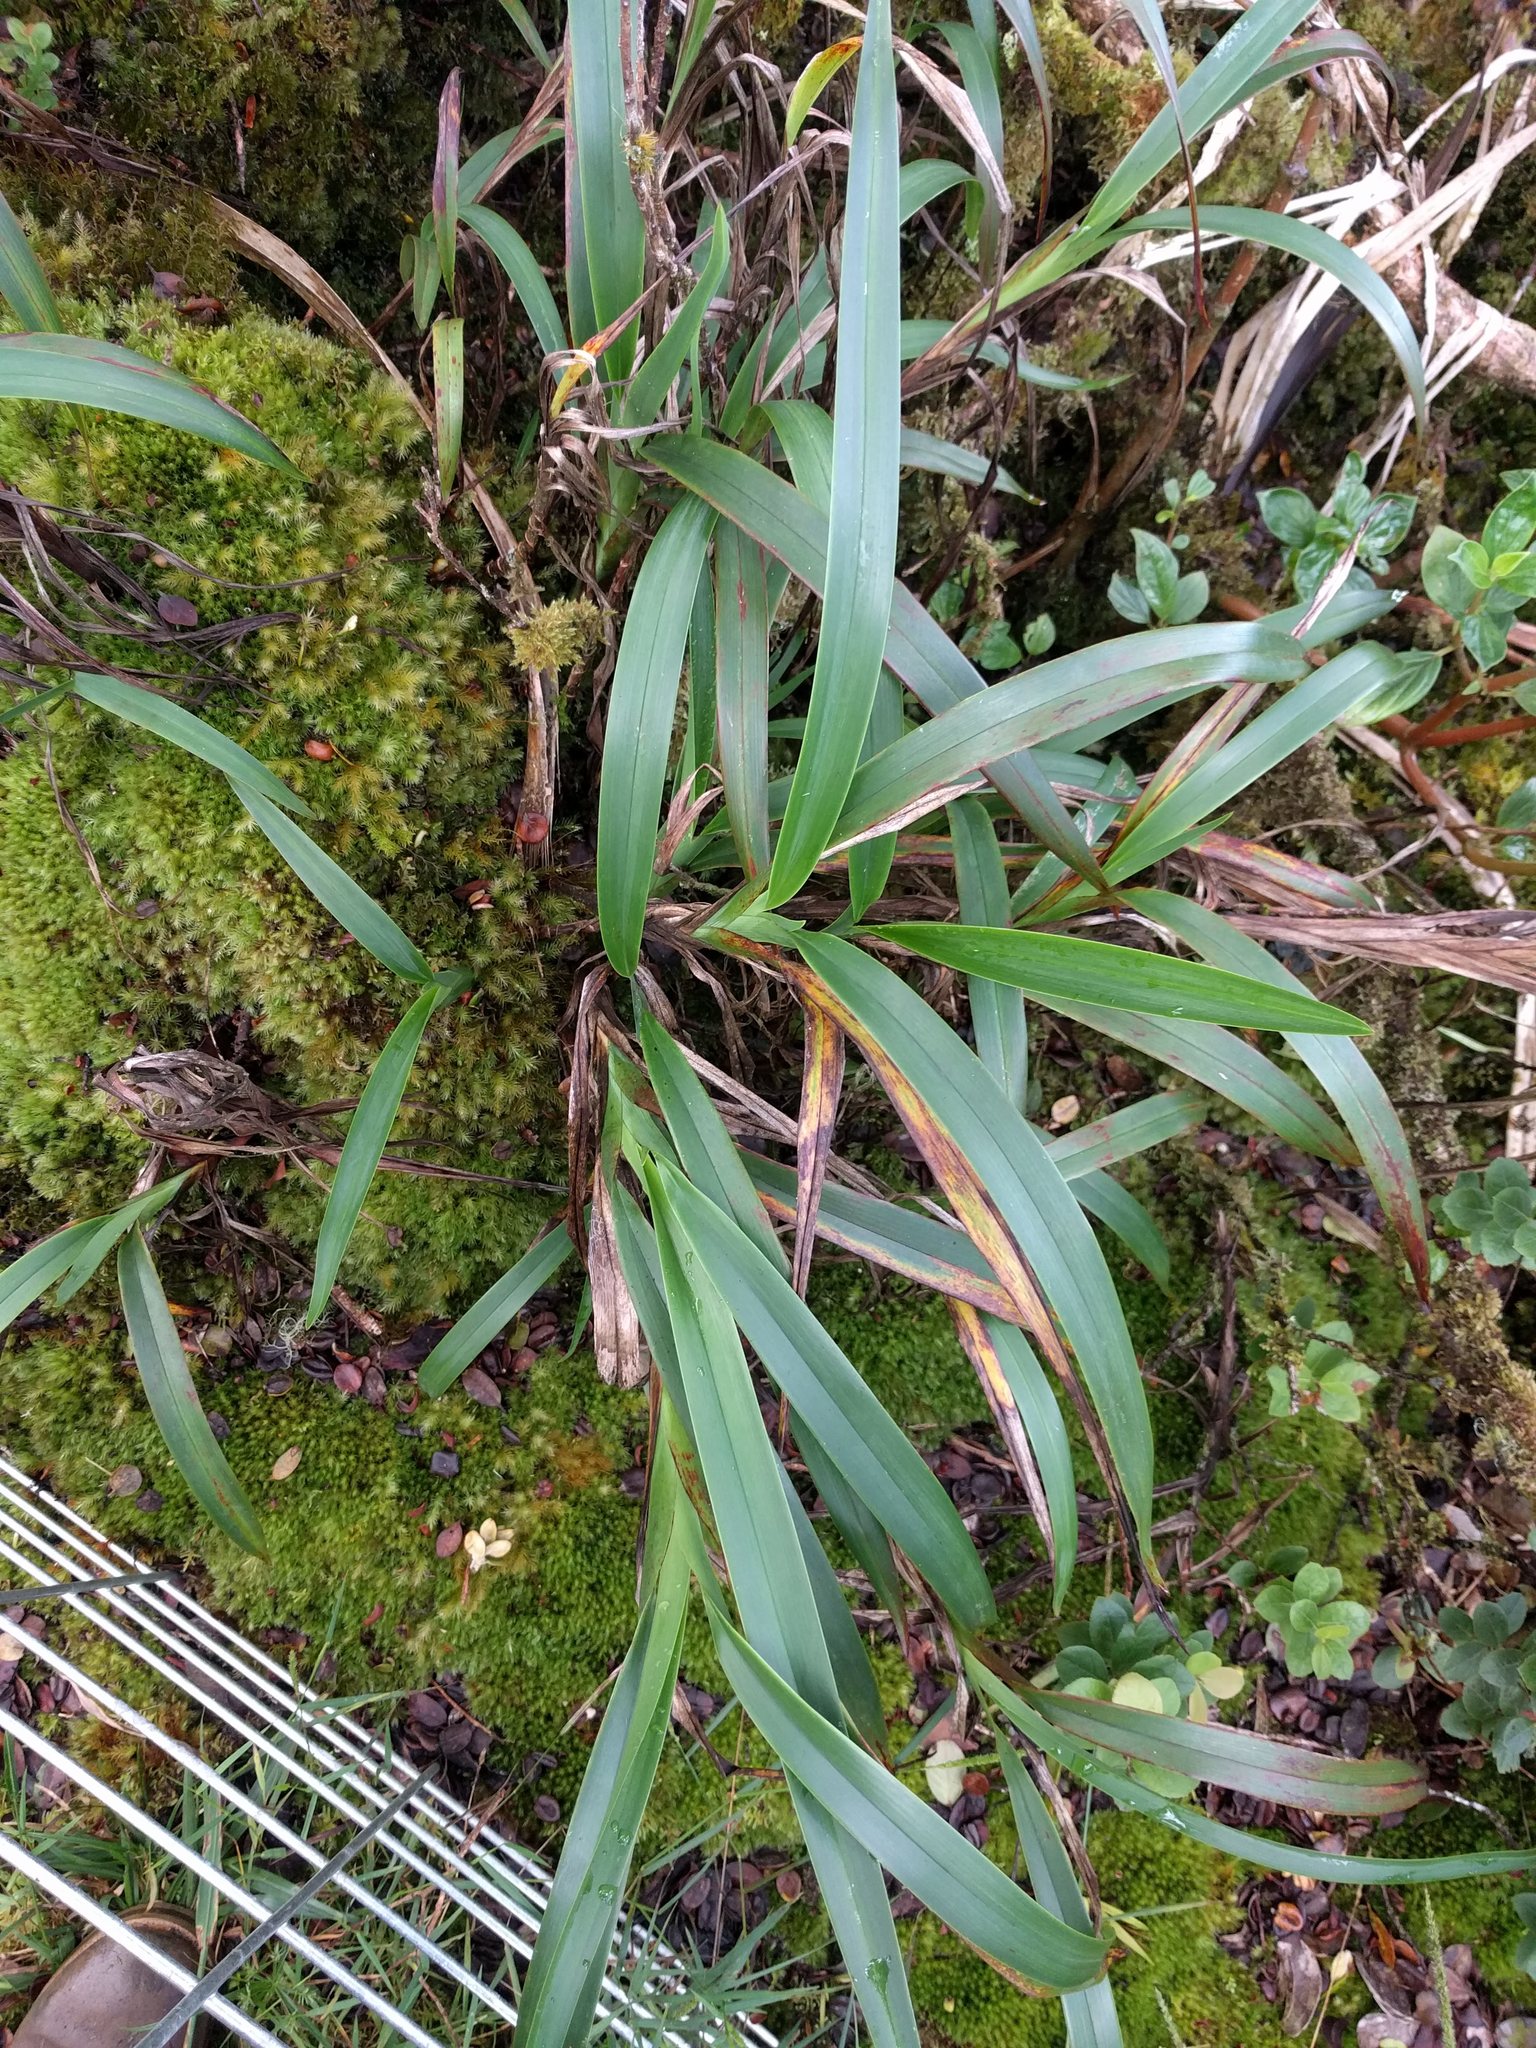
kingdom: Plantae
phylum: Tracheophyta
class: Liliopsida
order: Asparagales
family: Asphodelaceae
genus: Dianella
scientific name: Dianella sandwicensis
